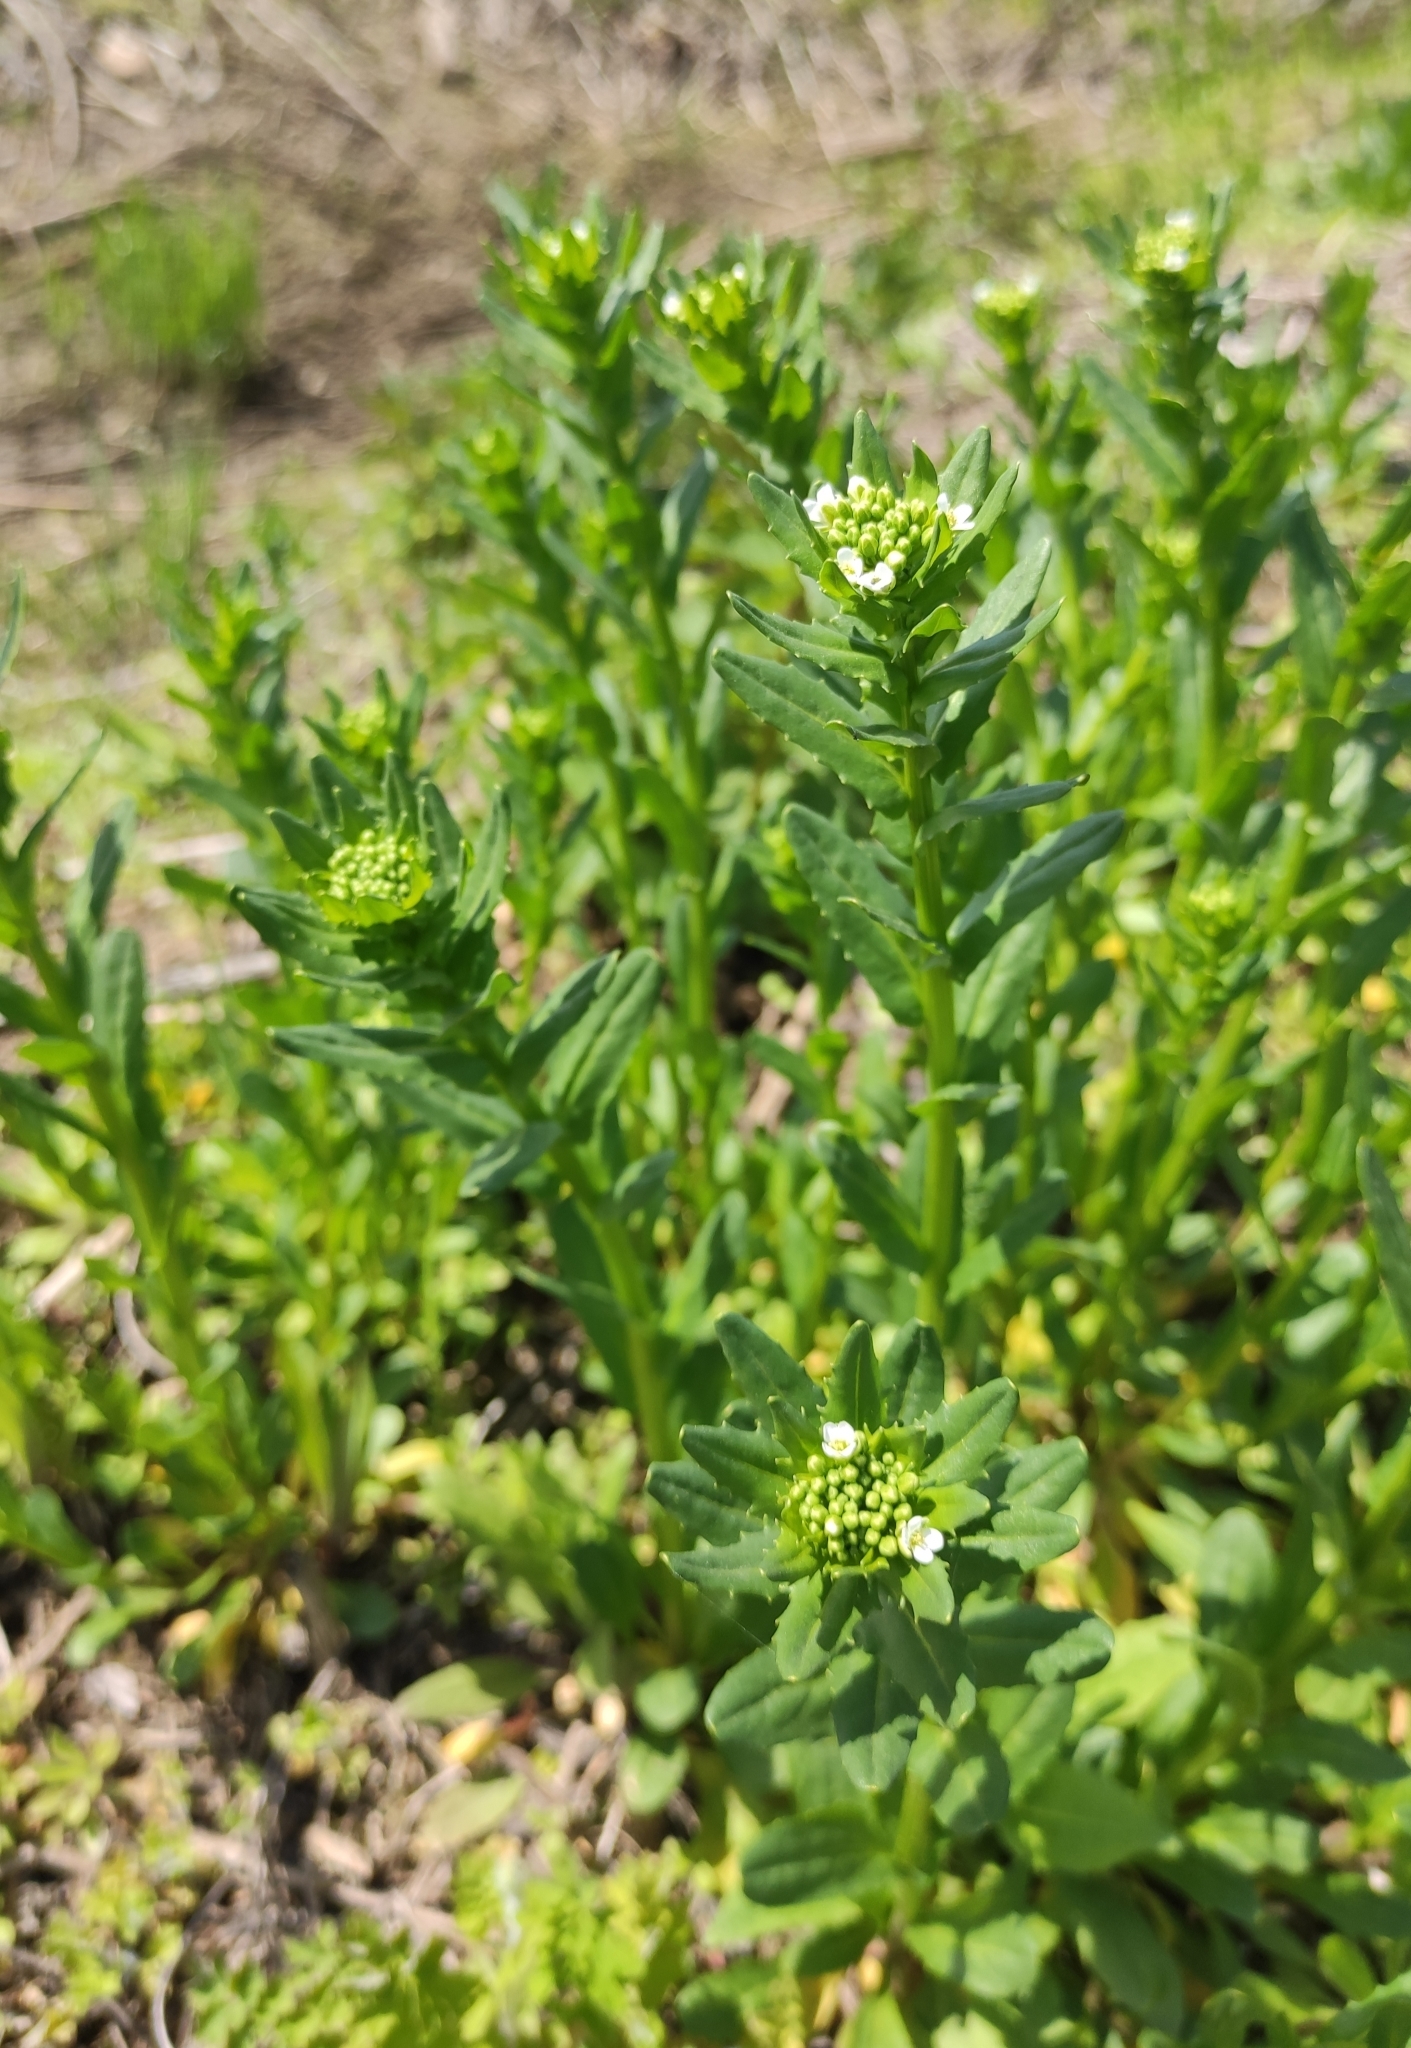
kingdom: Plantae
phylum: Tracheophyta
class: Magnoliopsida
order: Brassicales
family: Brassicaceae
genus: Thlaspi
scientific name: Thlaspi arvense
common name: Field pennycress
